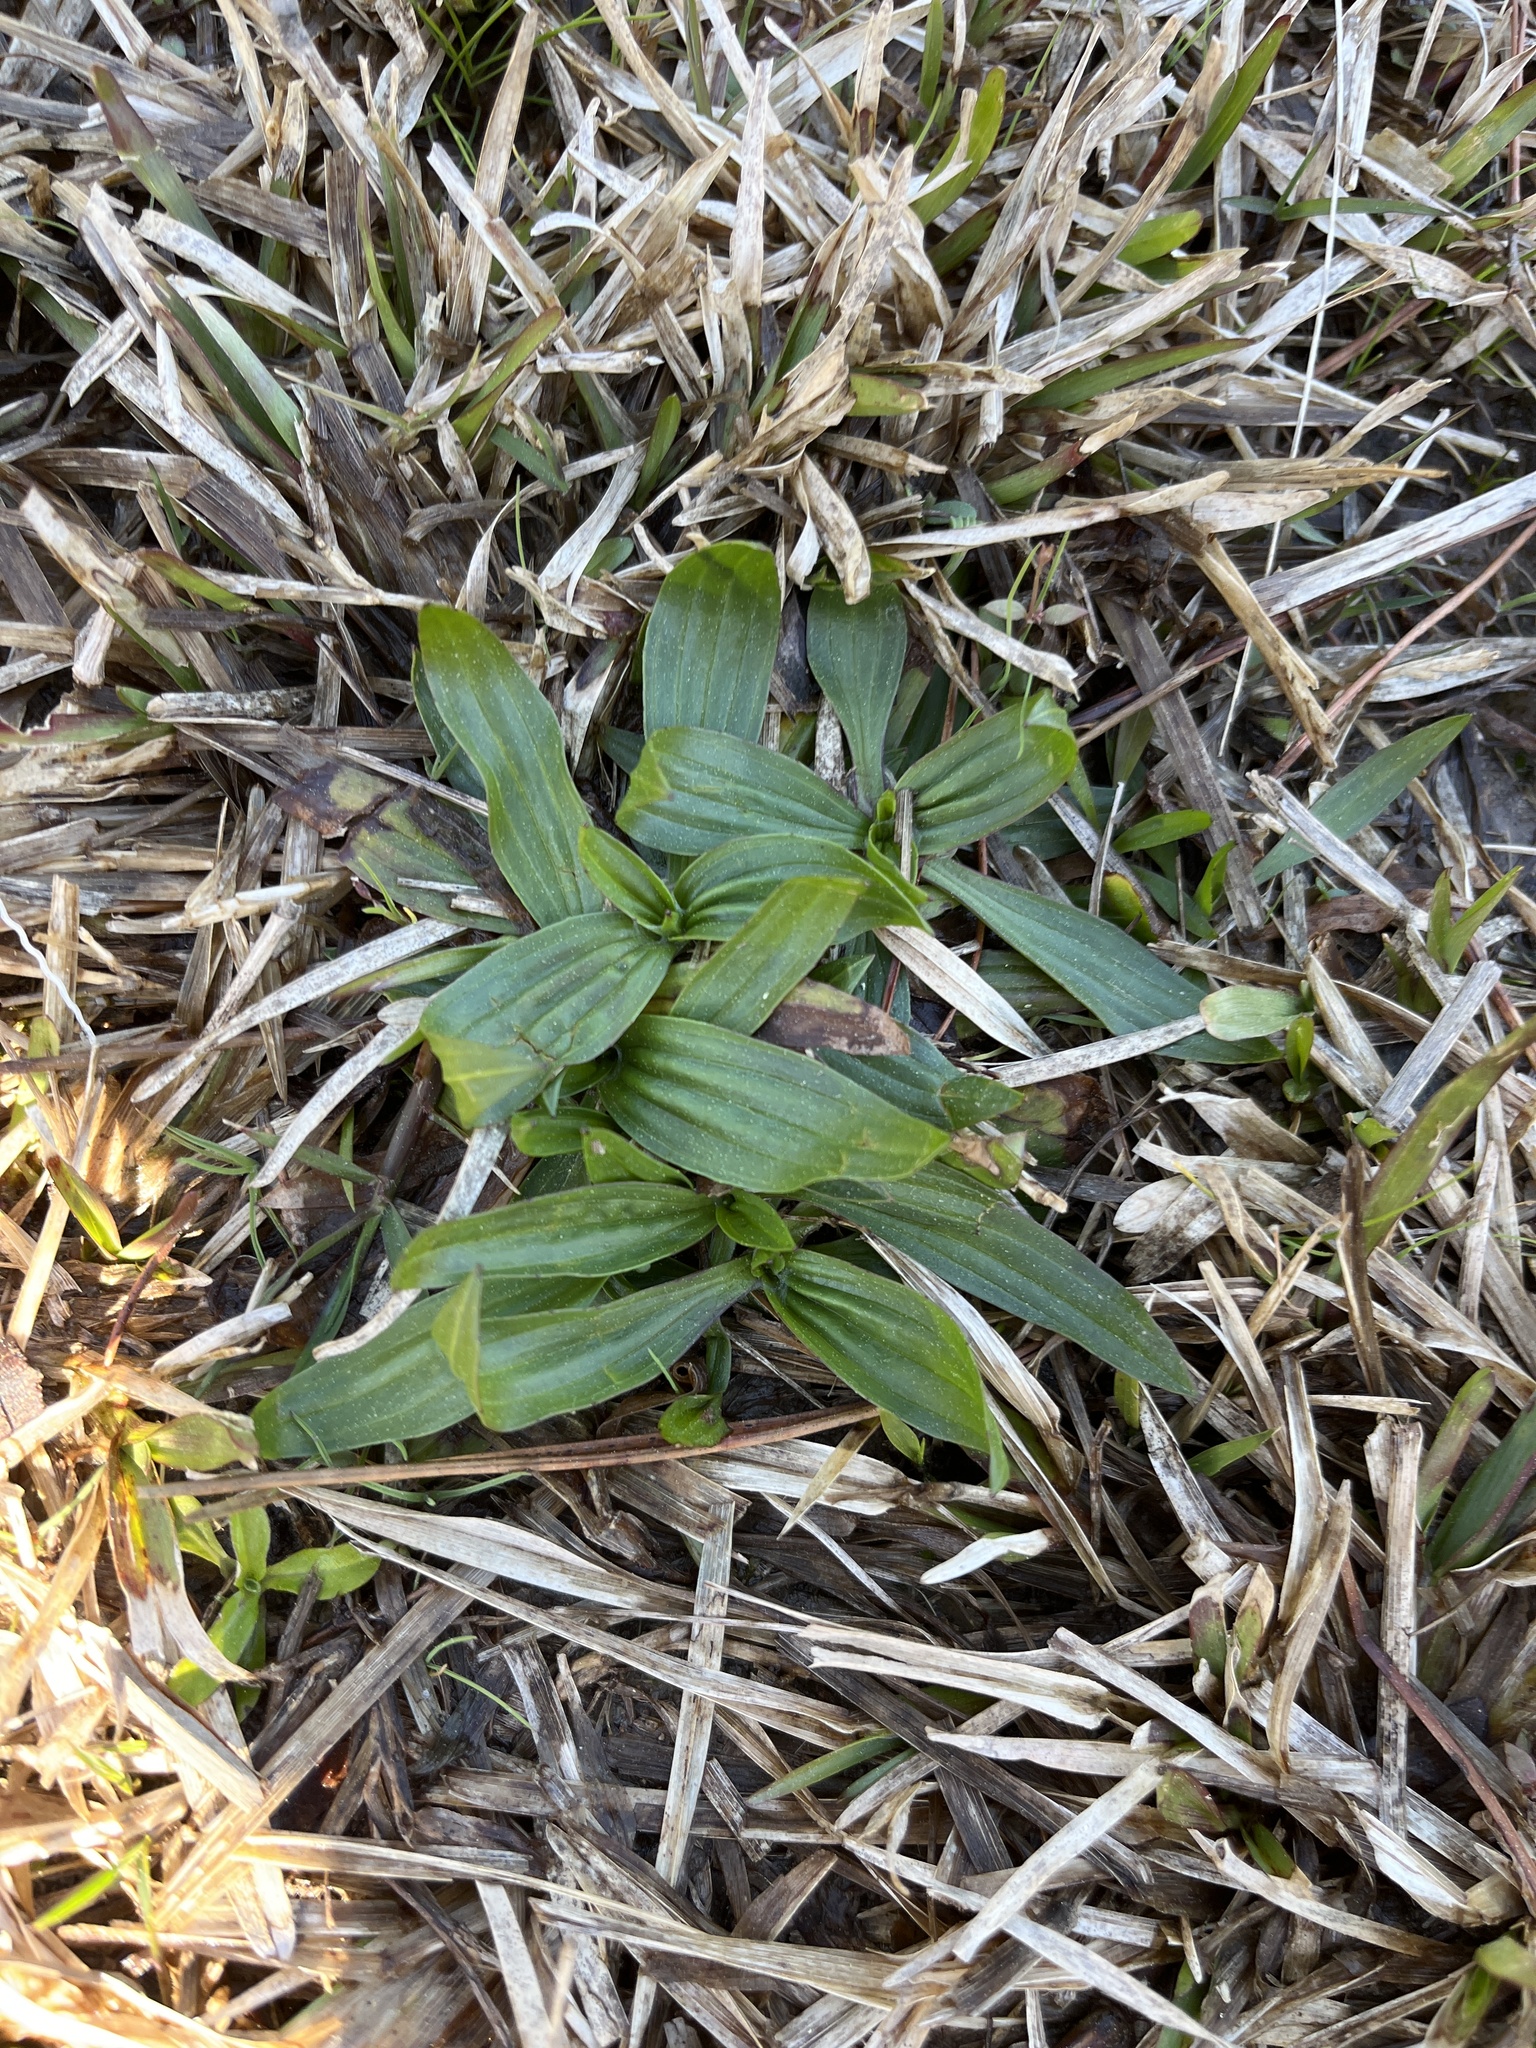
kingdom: Plantae
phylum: Tracheophyta
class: Magnoliopsida
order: Lamiales
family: Plantaginaceae
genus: Plantago
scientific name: Plantago lanceolata
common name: Ribwort plantain
